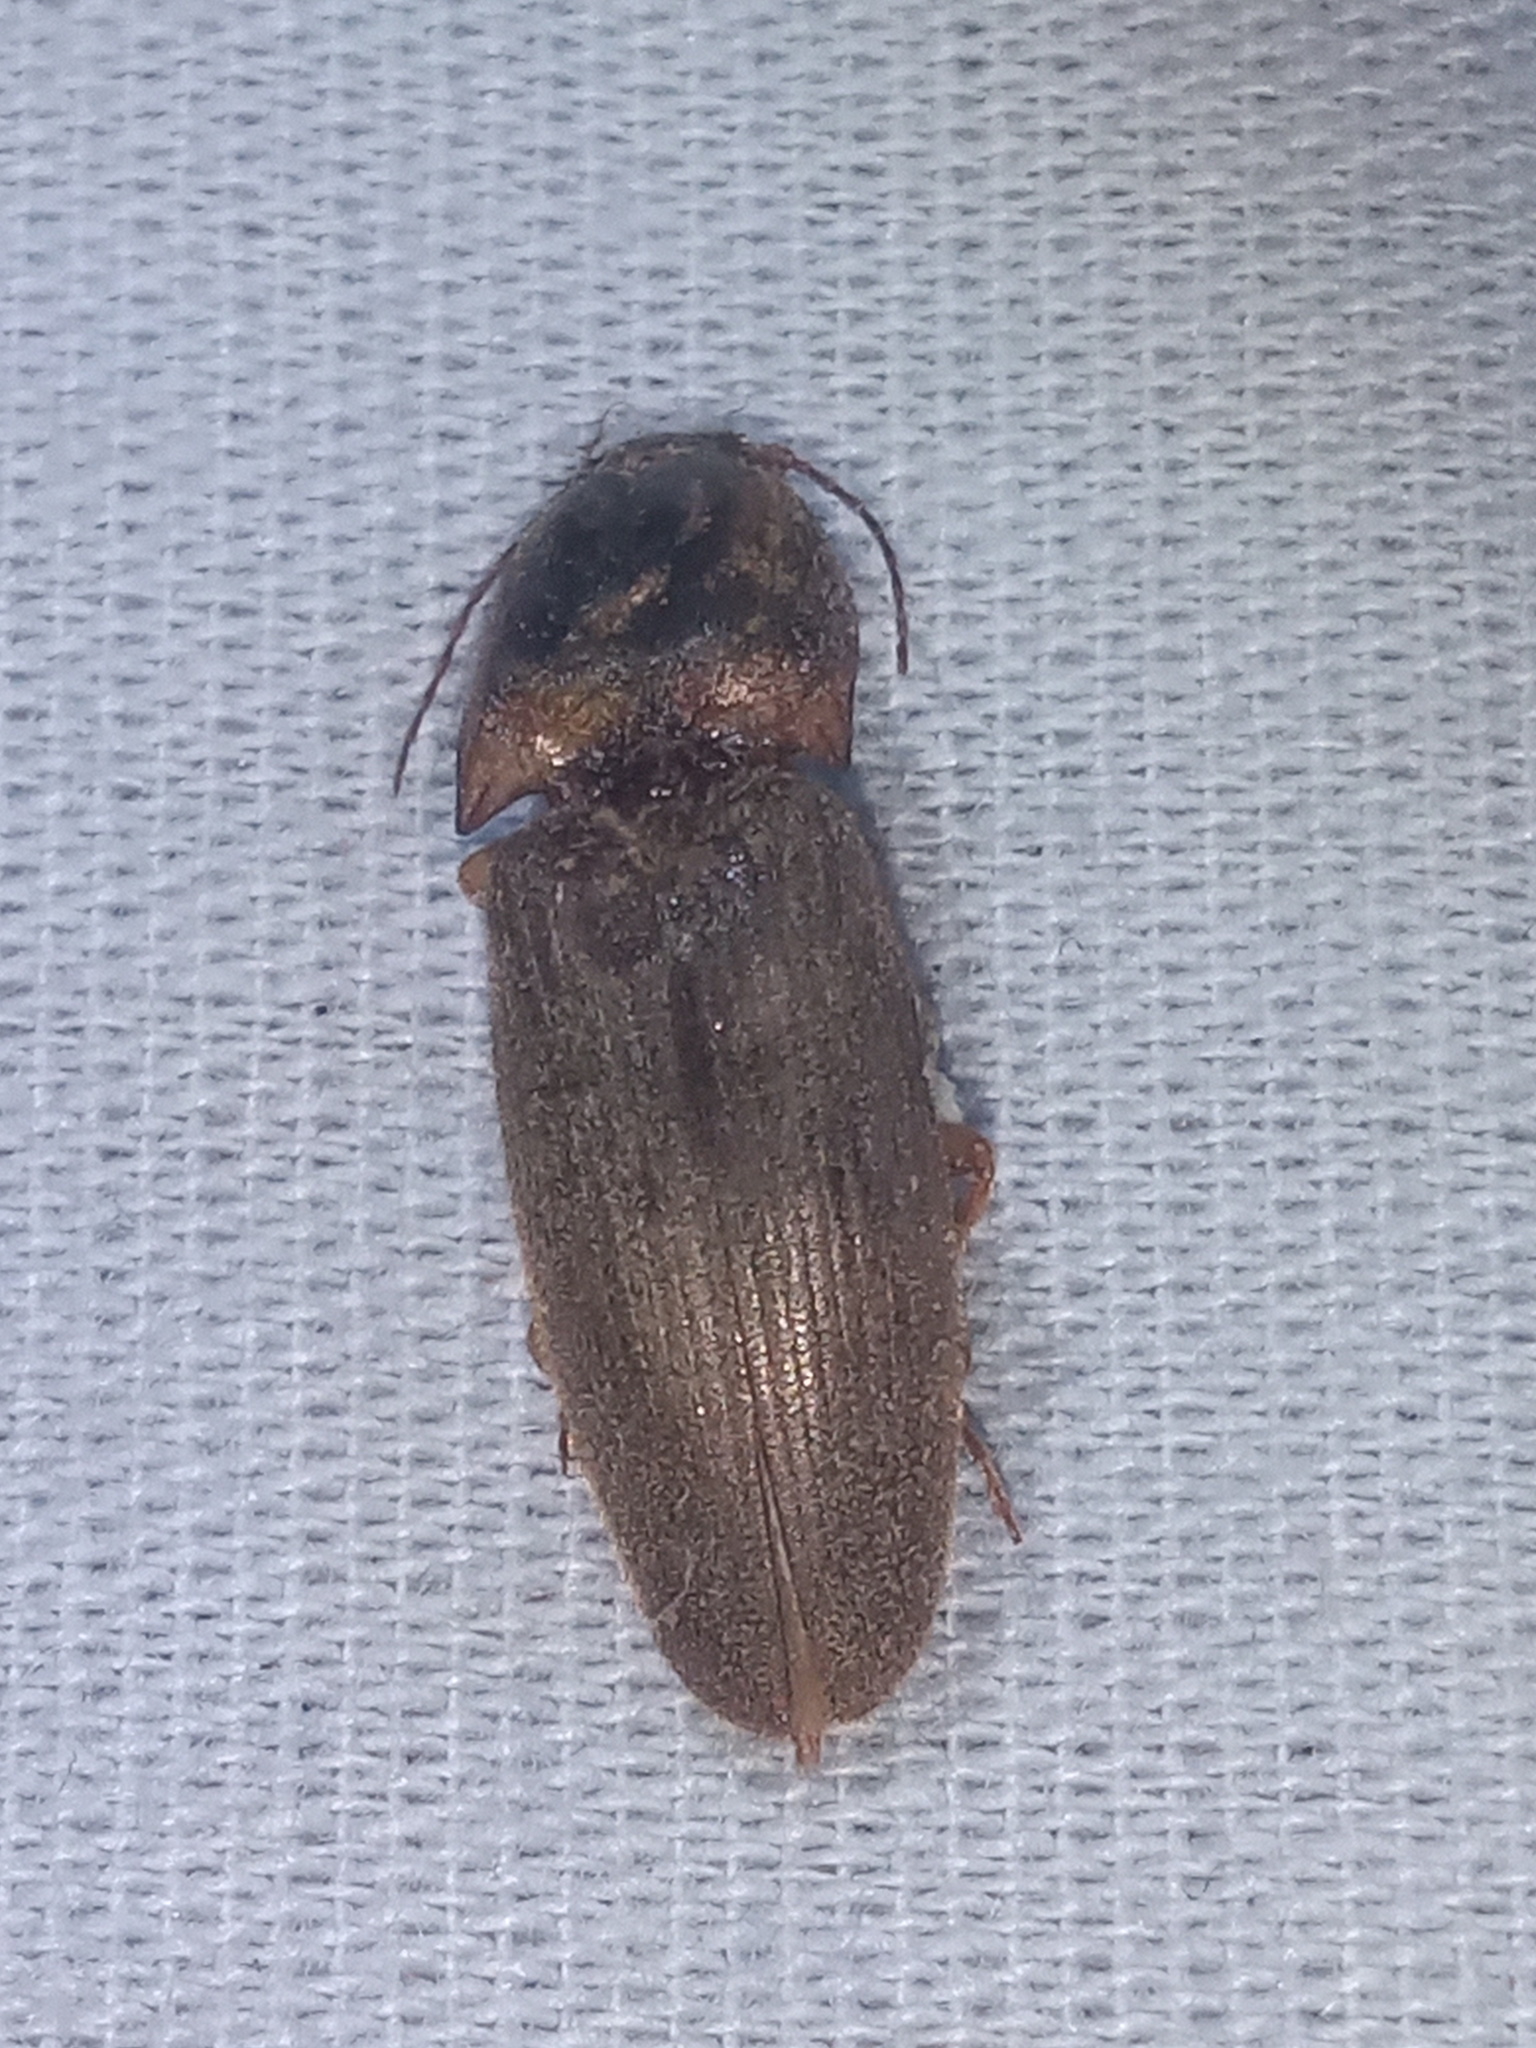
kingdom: Animalia
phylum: Arthropoda
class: Insecta
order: Coleoptera
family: Elateridae
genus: Monocrepidius
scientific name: Monocrepidius
